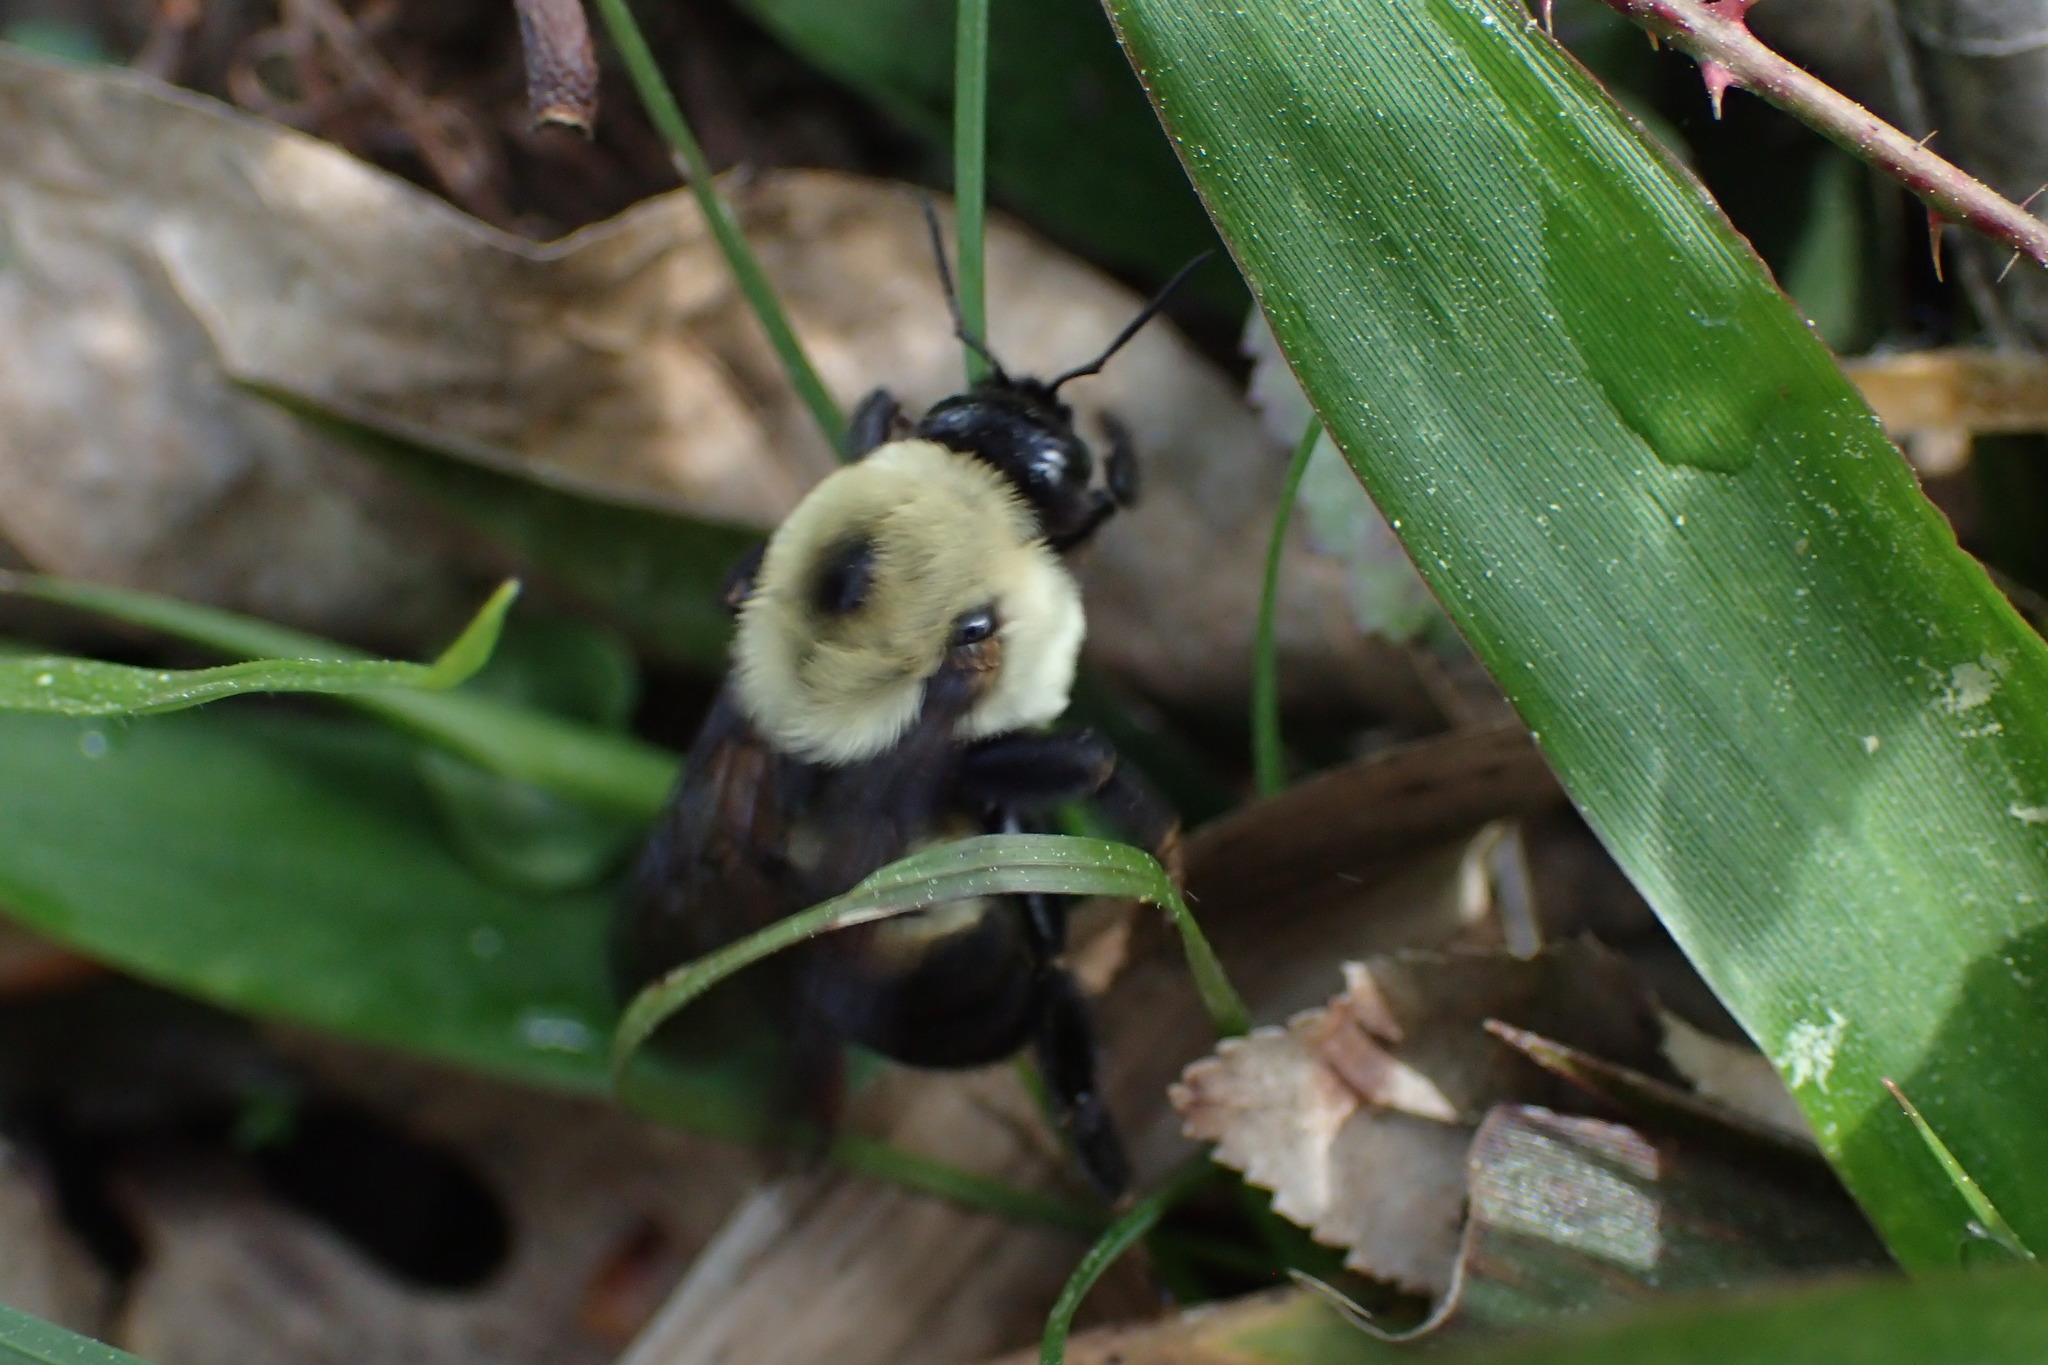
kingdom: Animalia
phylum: Arthropoda
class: Insecta
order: Hymenoptera
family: Apidae
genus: Bombus
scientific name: Bombus griseocollis
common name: Brown-belted bumble bee
